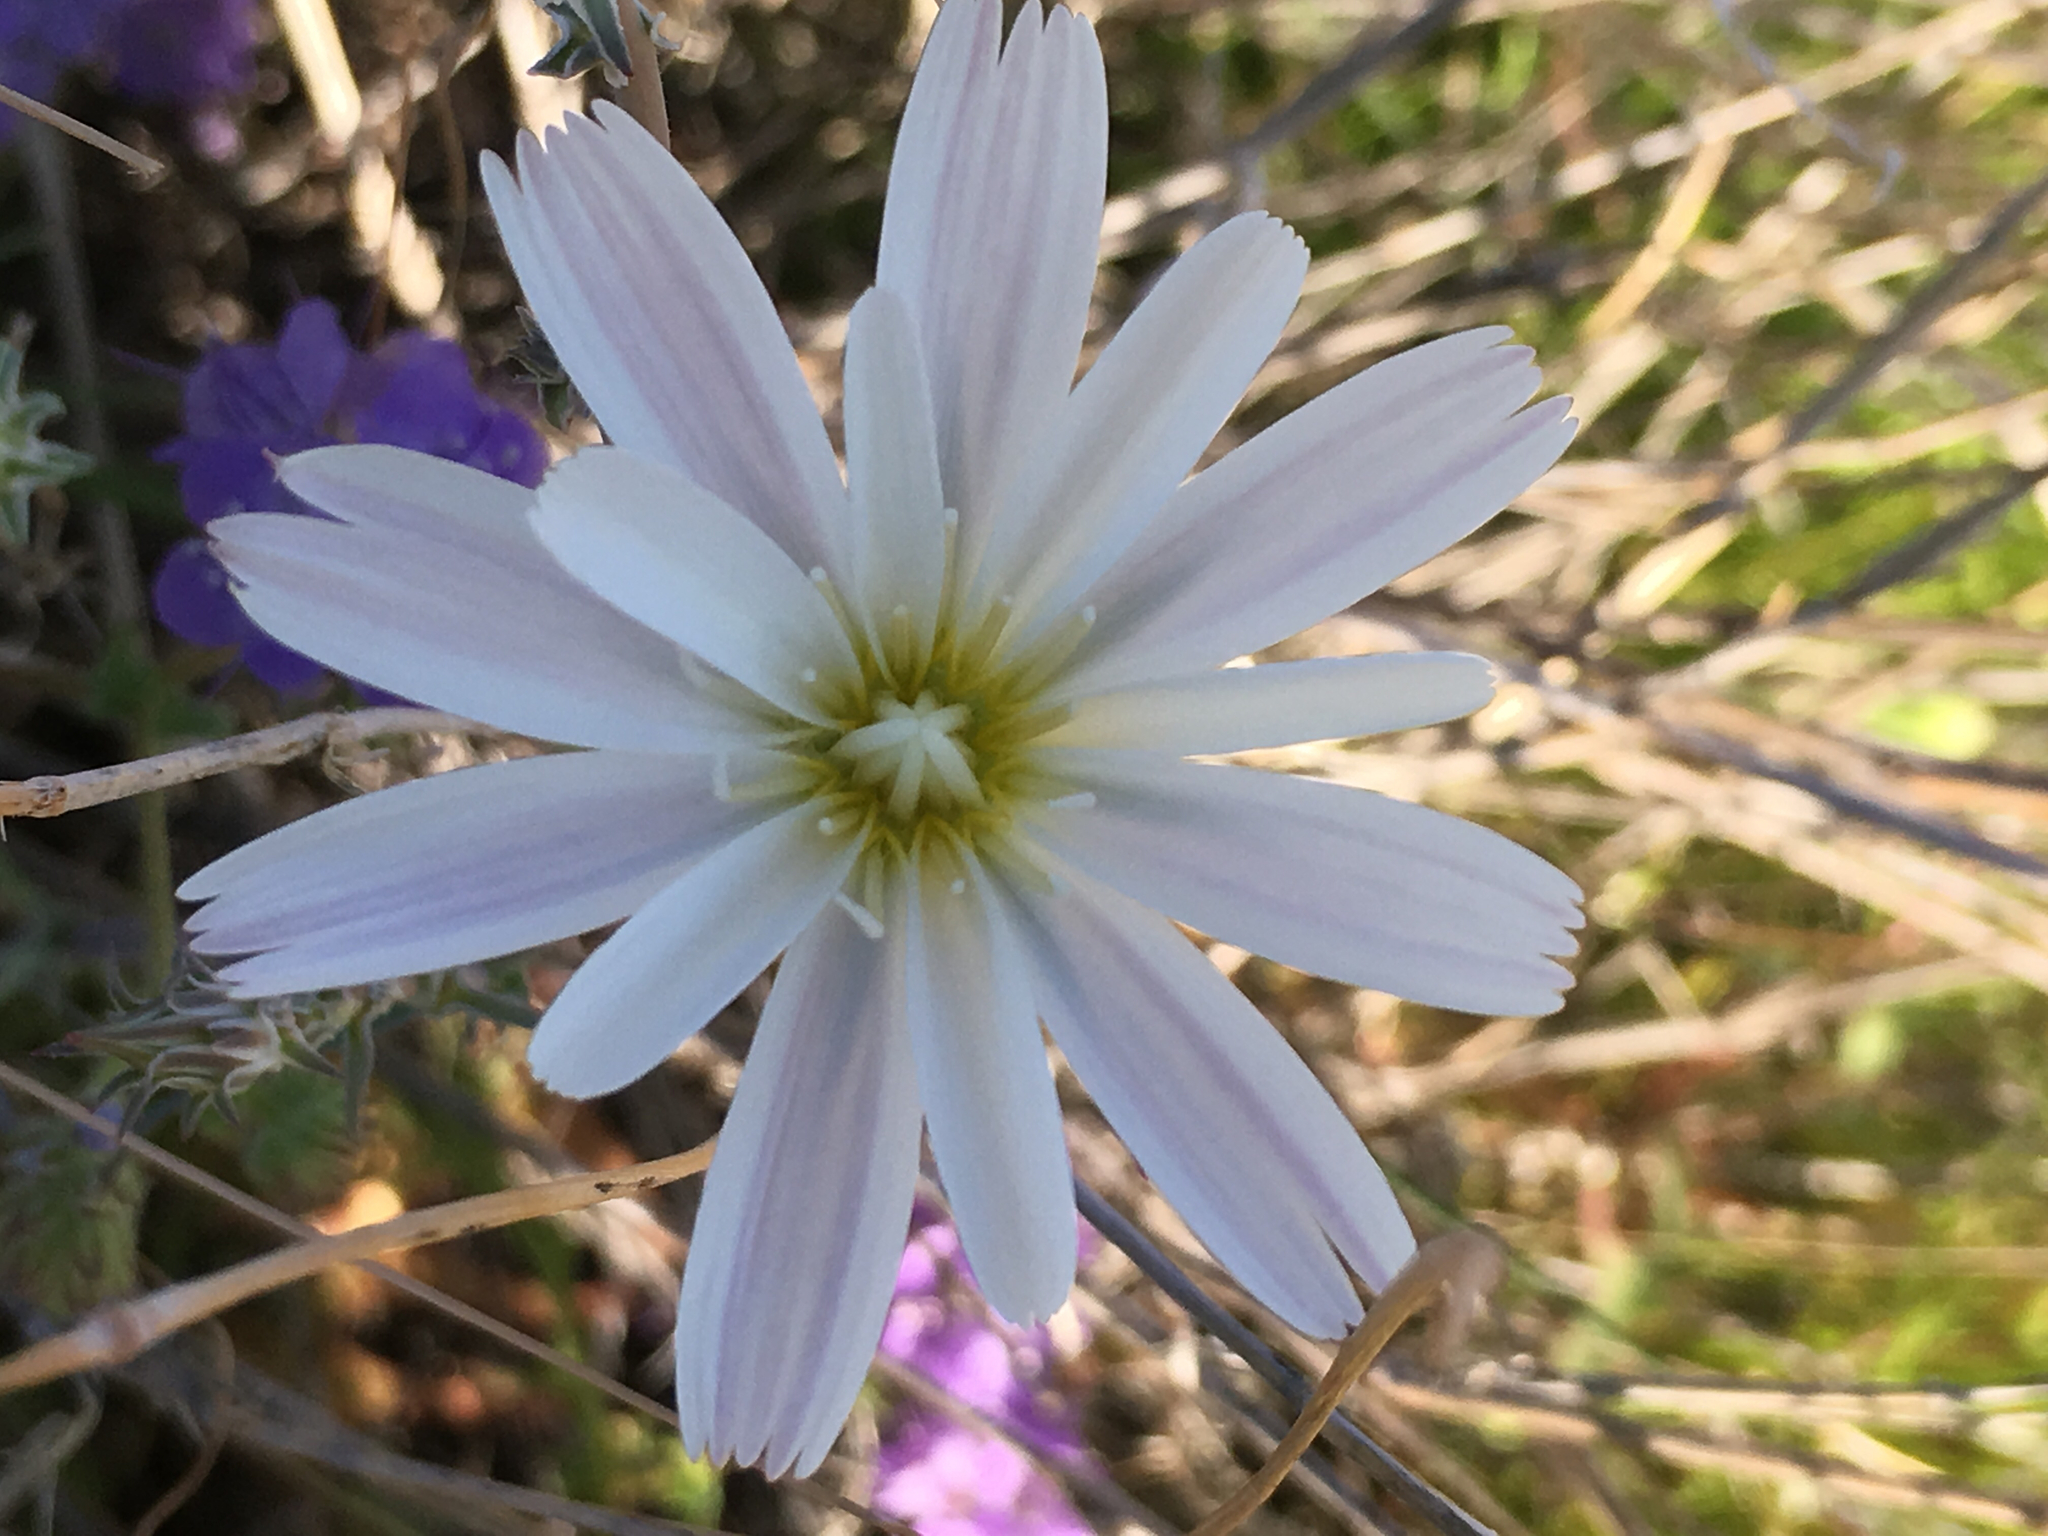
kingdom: Plantae
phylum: Tracheophyta
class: Magnoliopsida
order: Asterales
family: Asteraceae
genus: Rafinesquia
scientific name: Rafinesquia neomexicana
